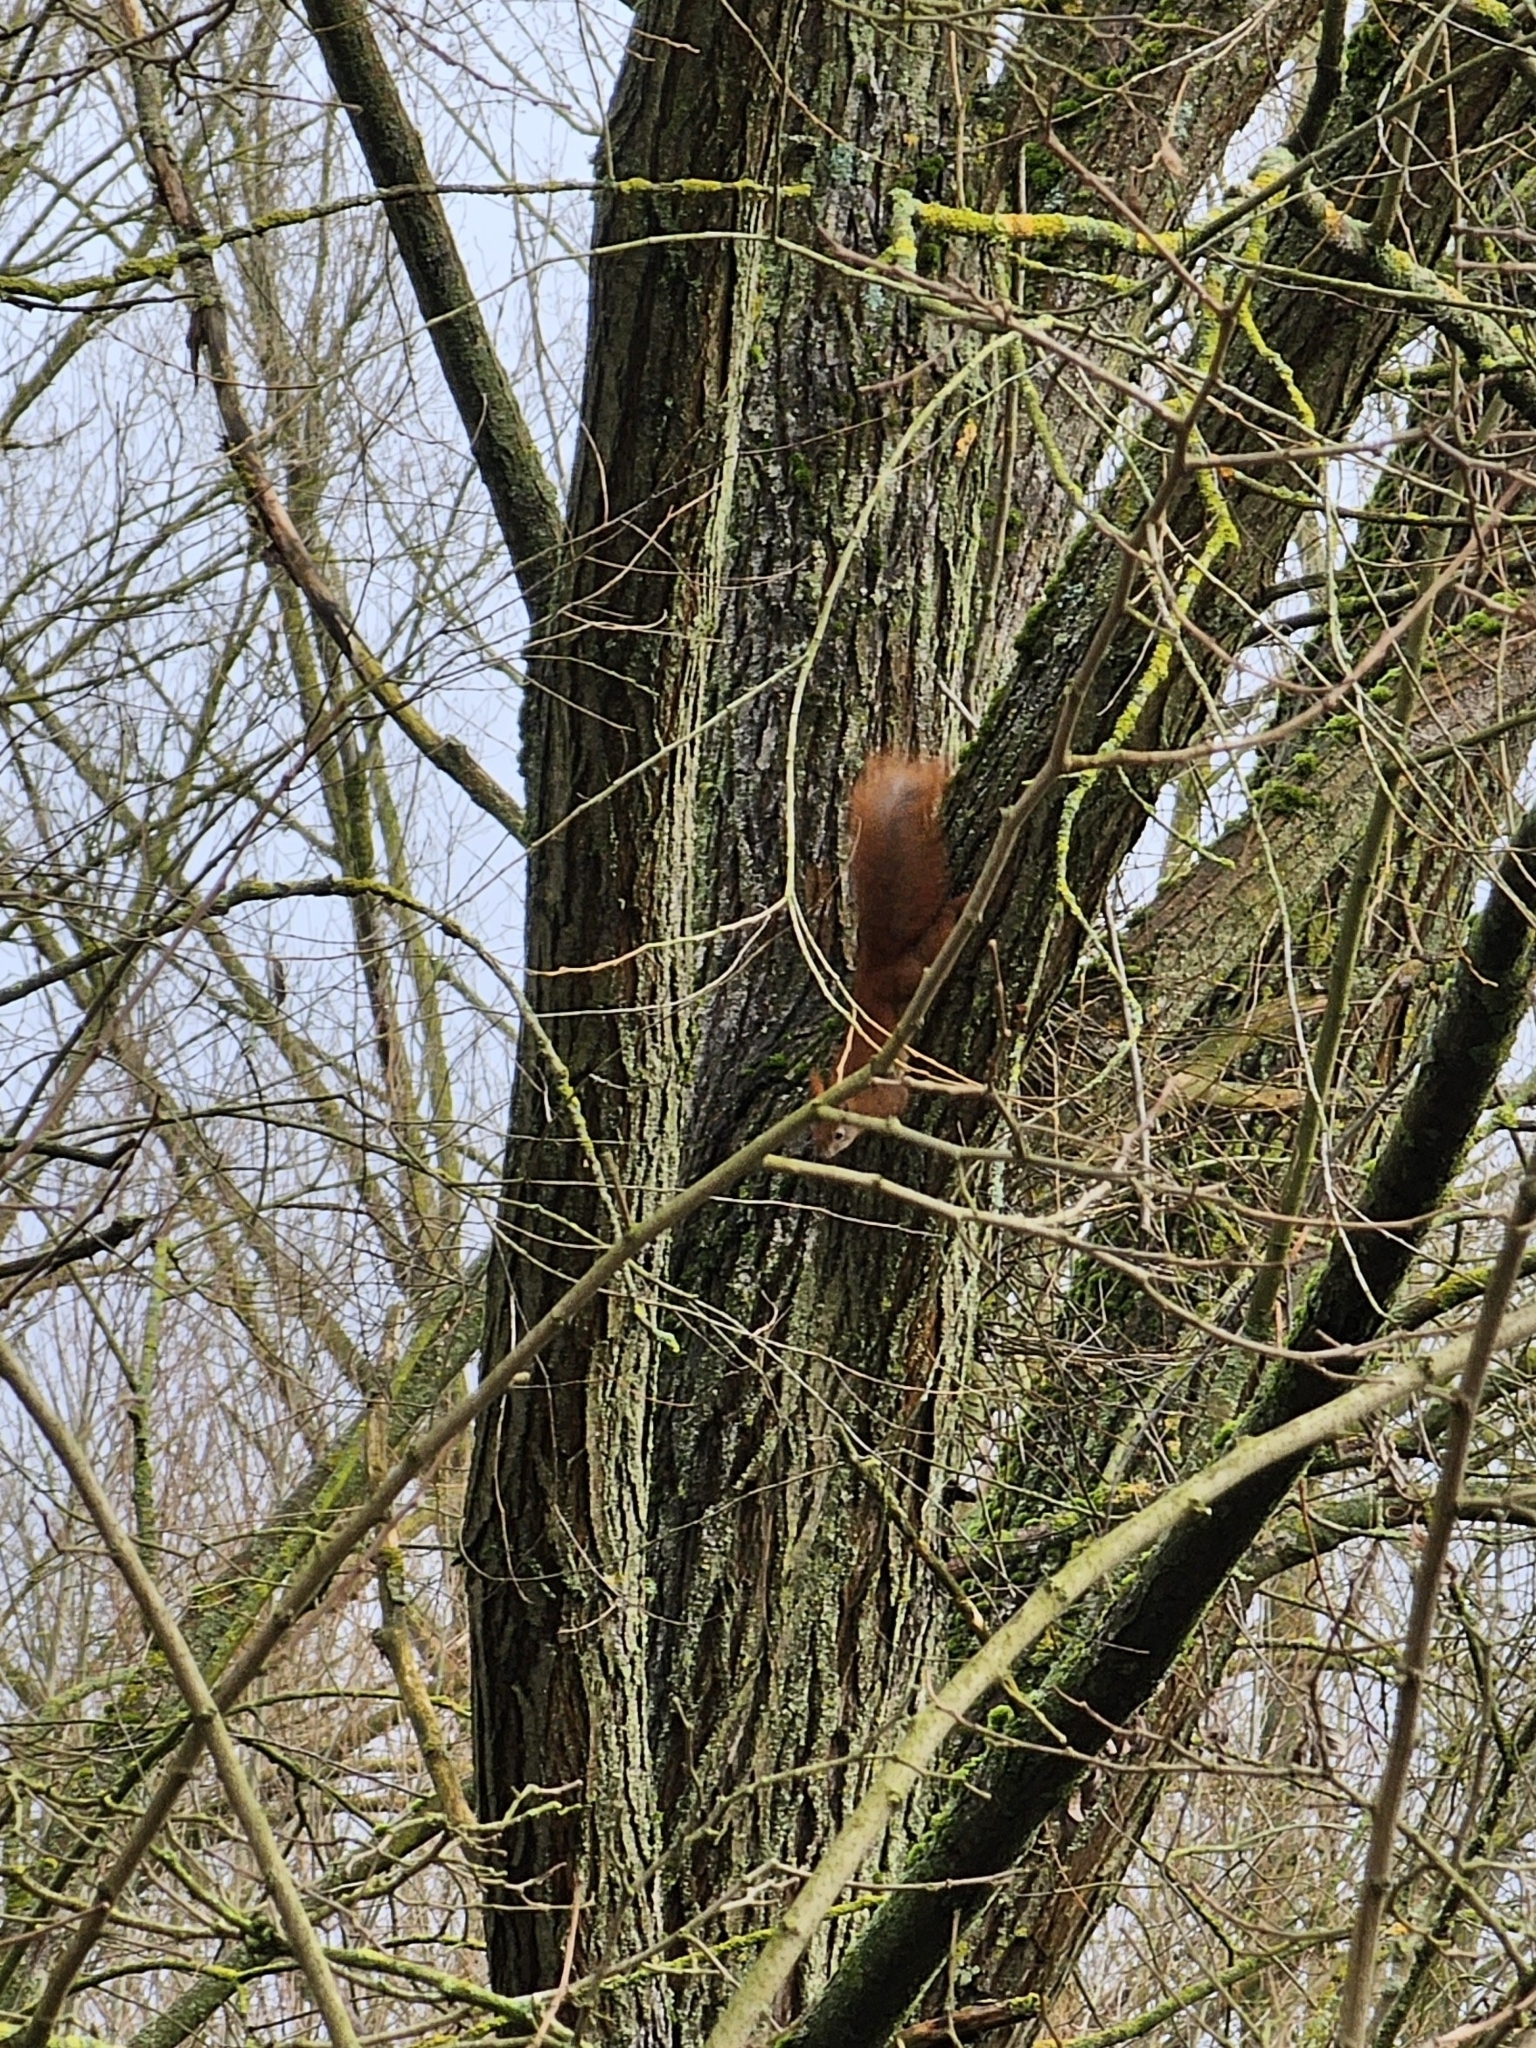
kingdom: Animalia
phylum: Chordata
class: Mammalia
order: Rodentia
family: Sciuridae
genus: Sciurus
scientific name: Sciurus vulgaris
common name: Eurasian red squirrel
